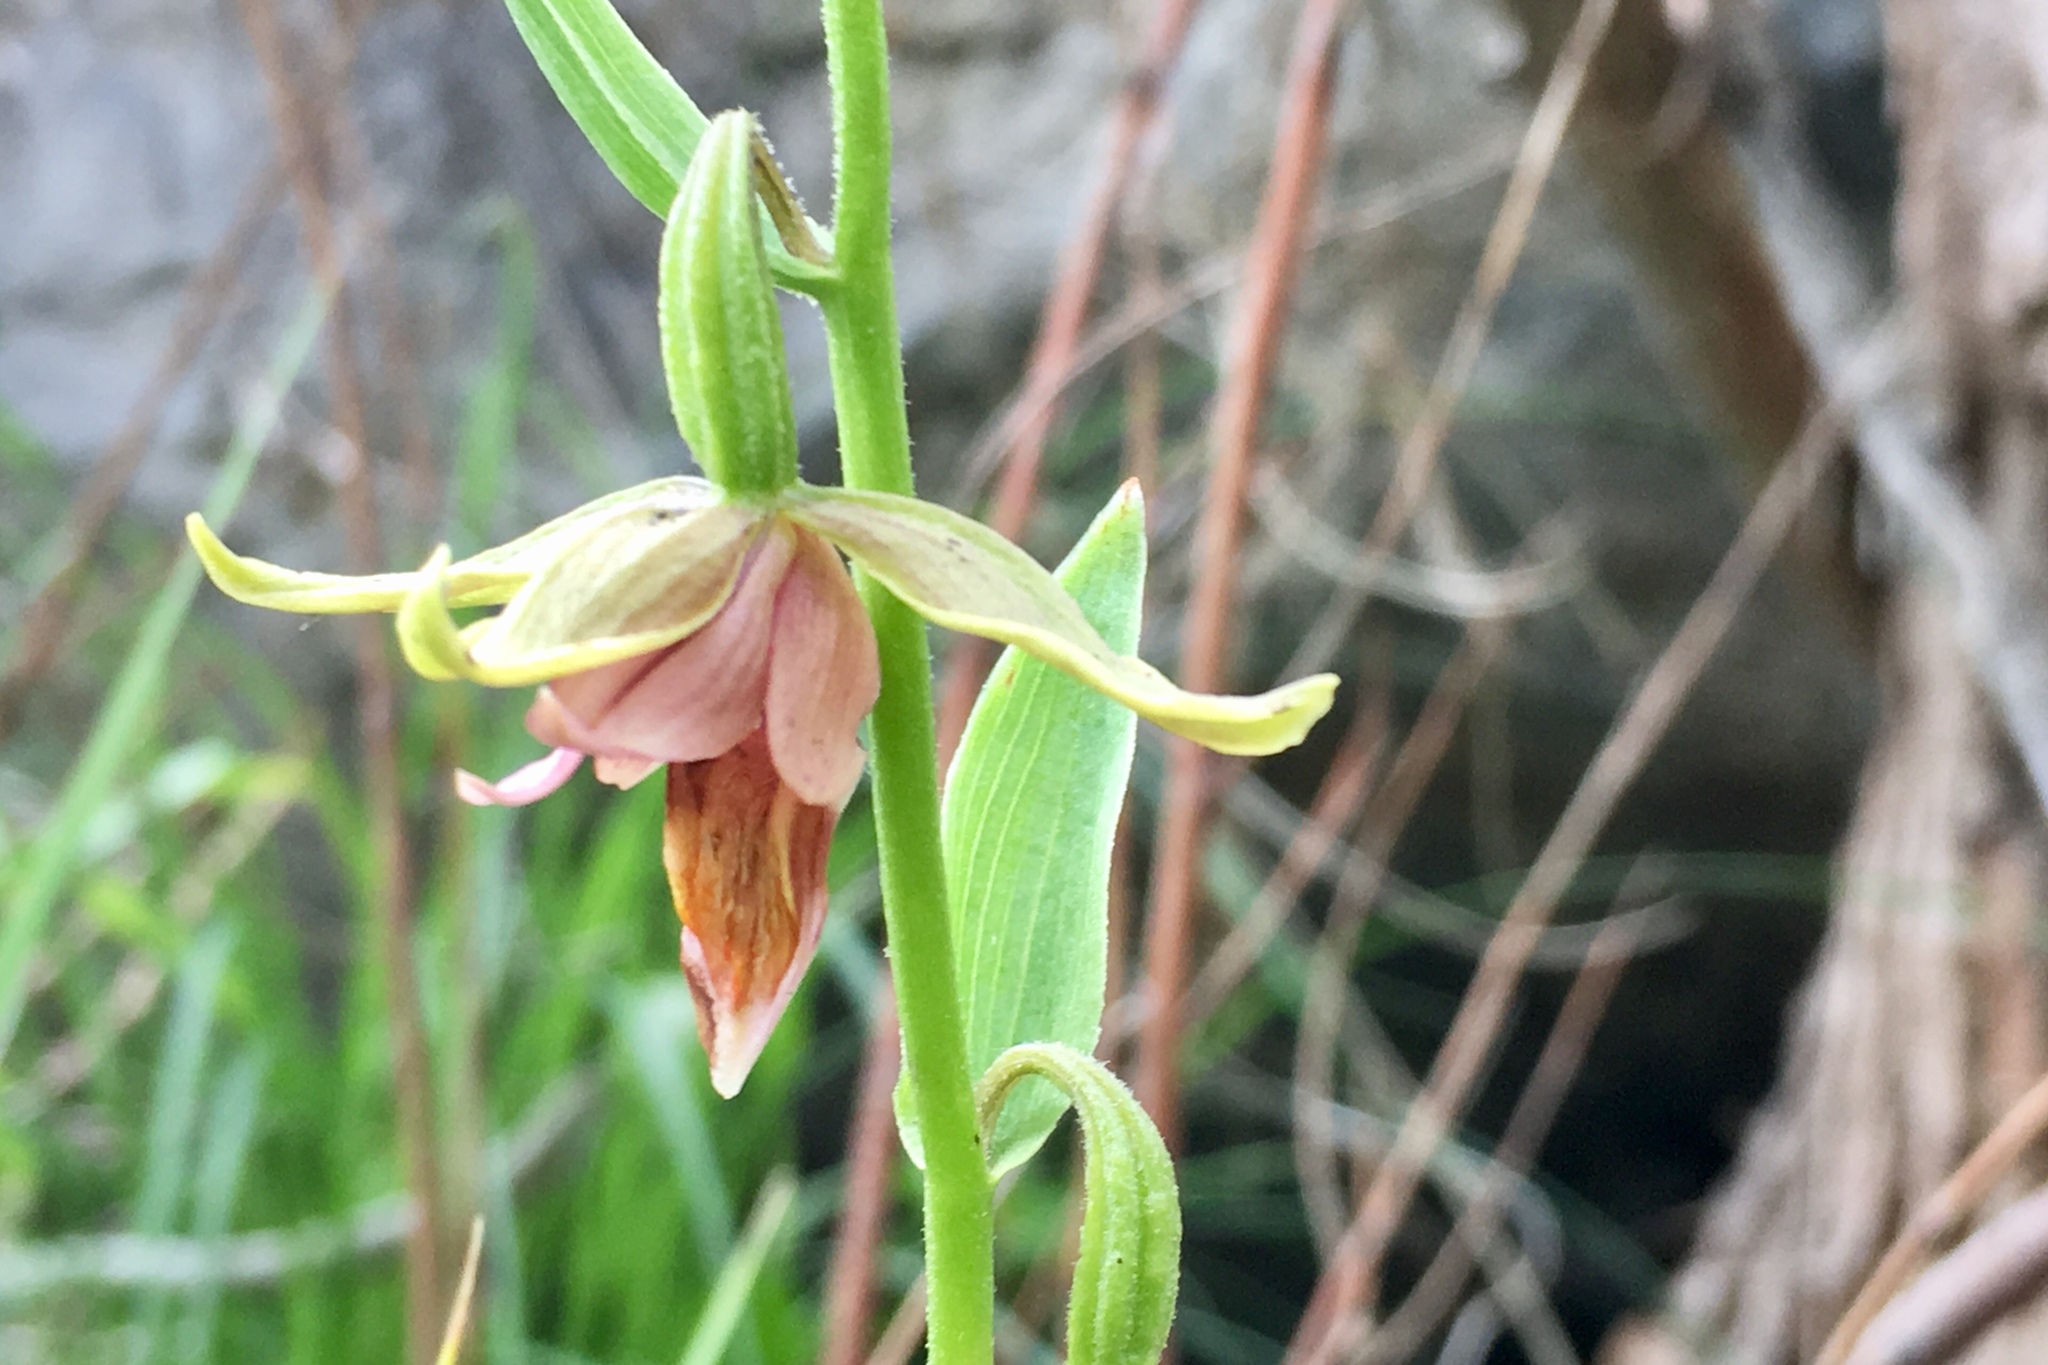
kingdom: Plantae
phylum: Tracheophyta
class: Liliopsida
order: Asparagales
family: Orchidaceae
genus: Epipactis
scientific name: Epipactis gigantea
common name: Chatterbox
